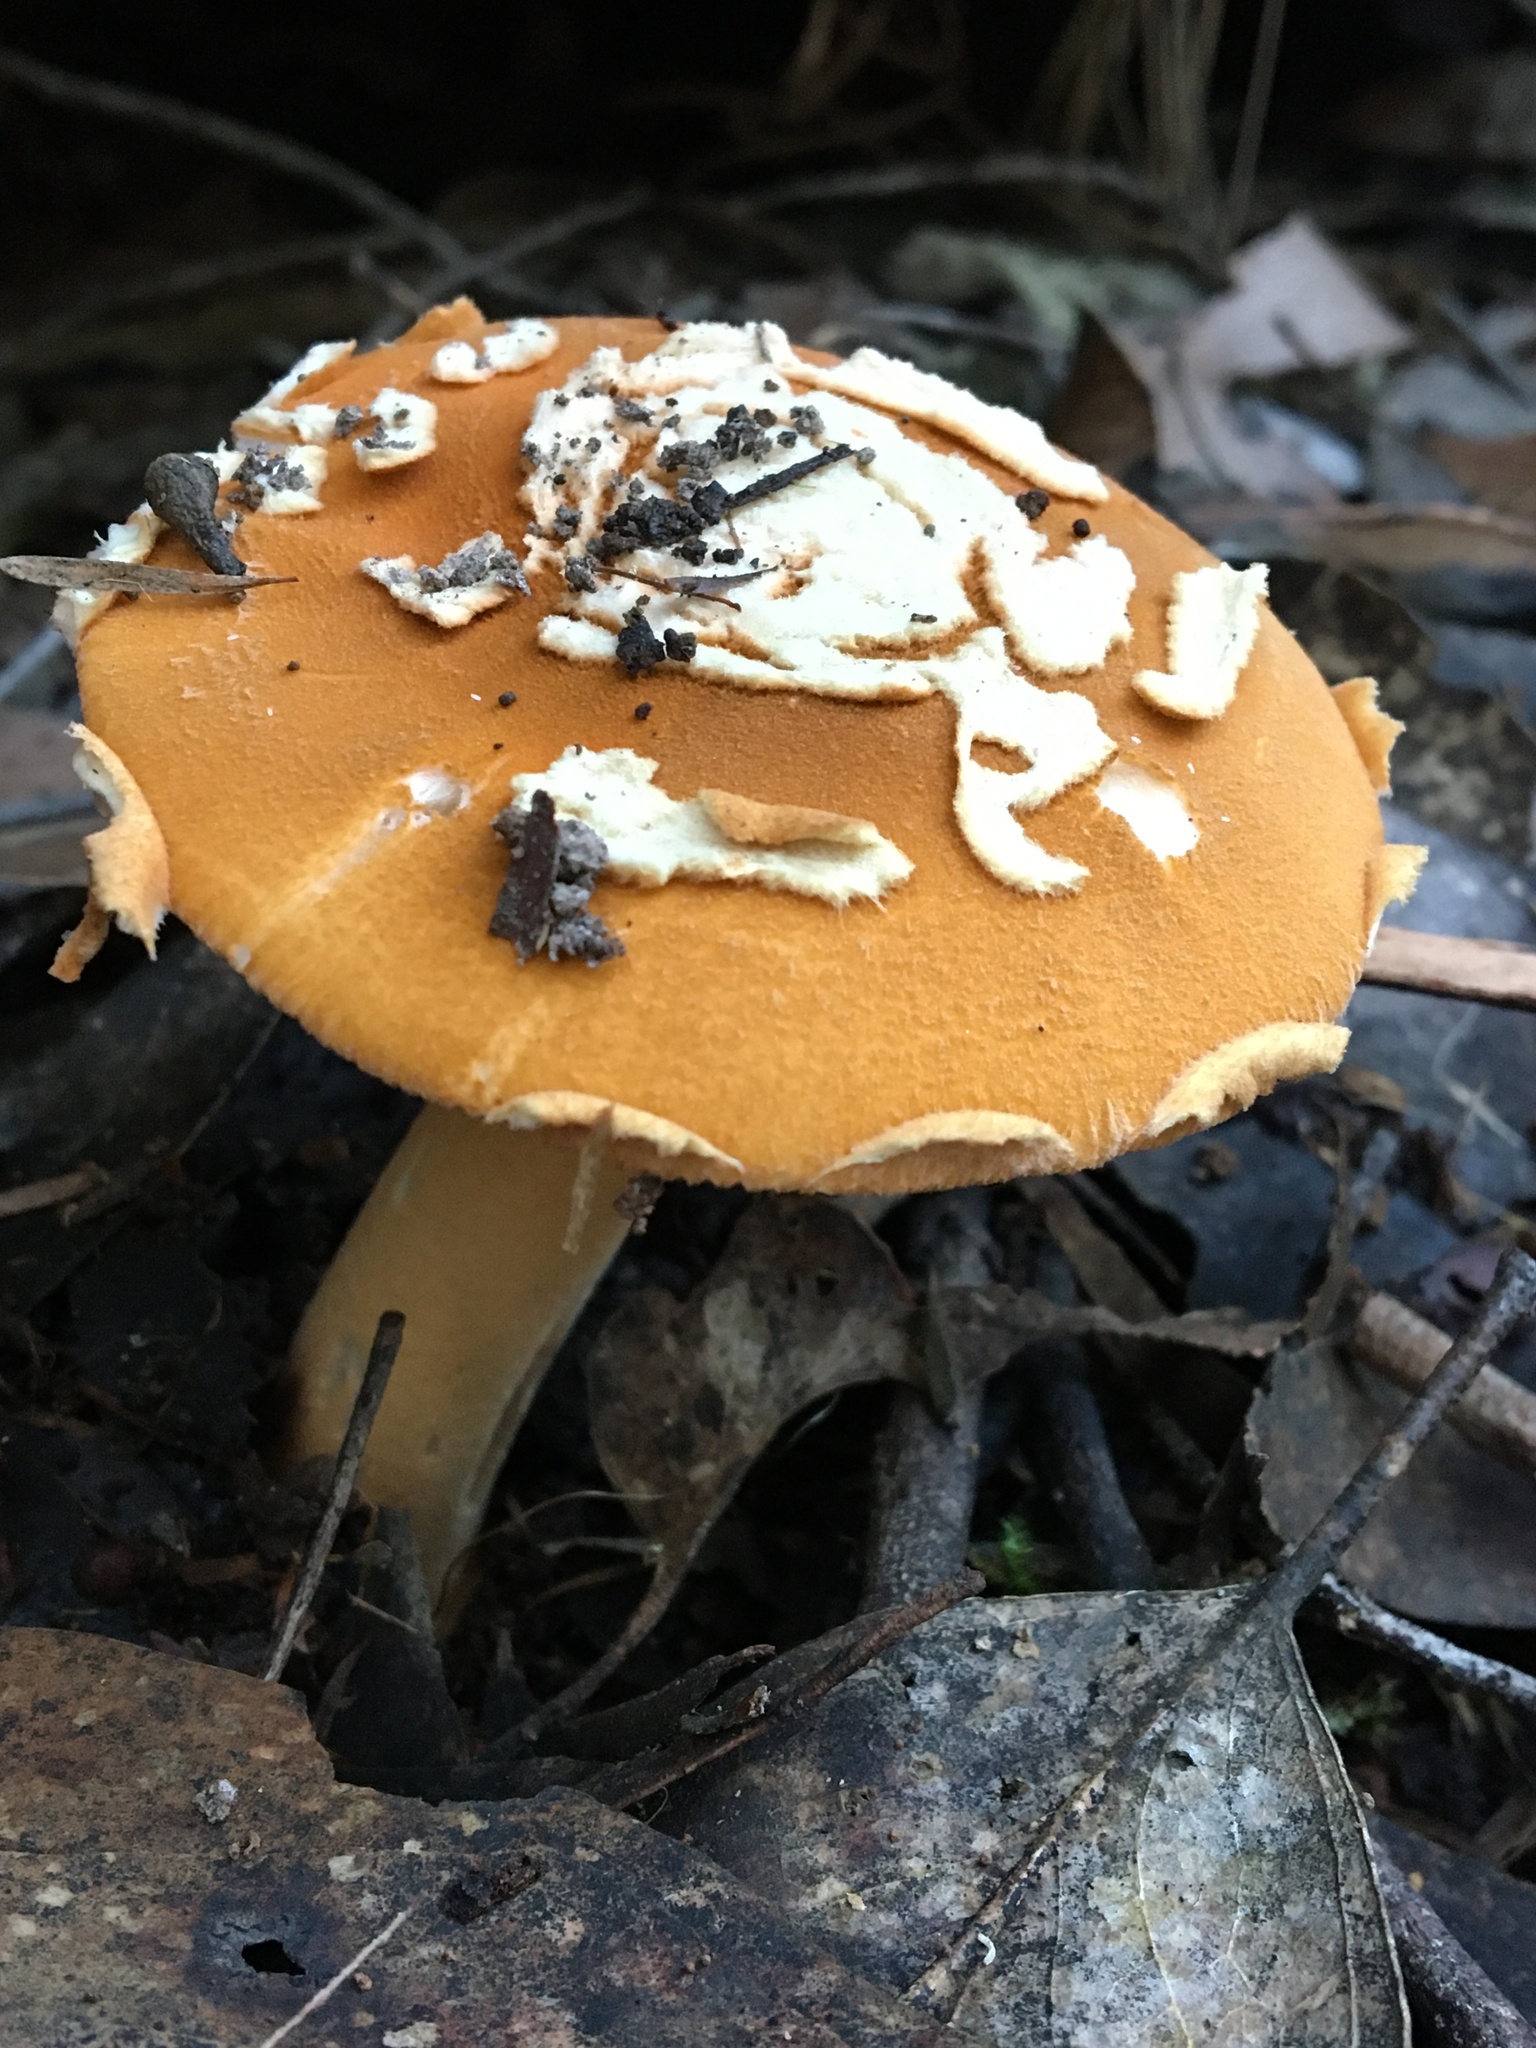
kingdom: Fungi
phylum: Basidiomycota
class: Agaricomycetes
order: Agaricales
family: Amanitaceae
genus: Amanita
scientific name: Amanita armeniaca
